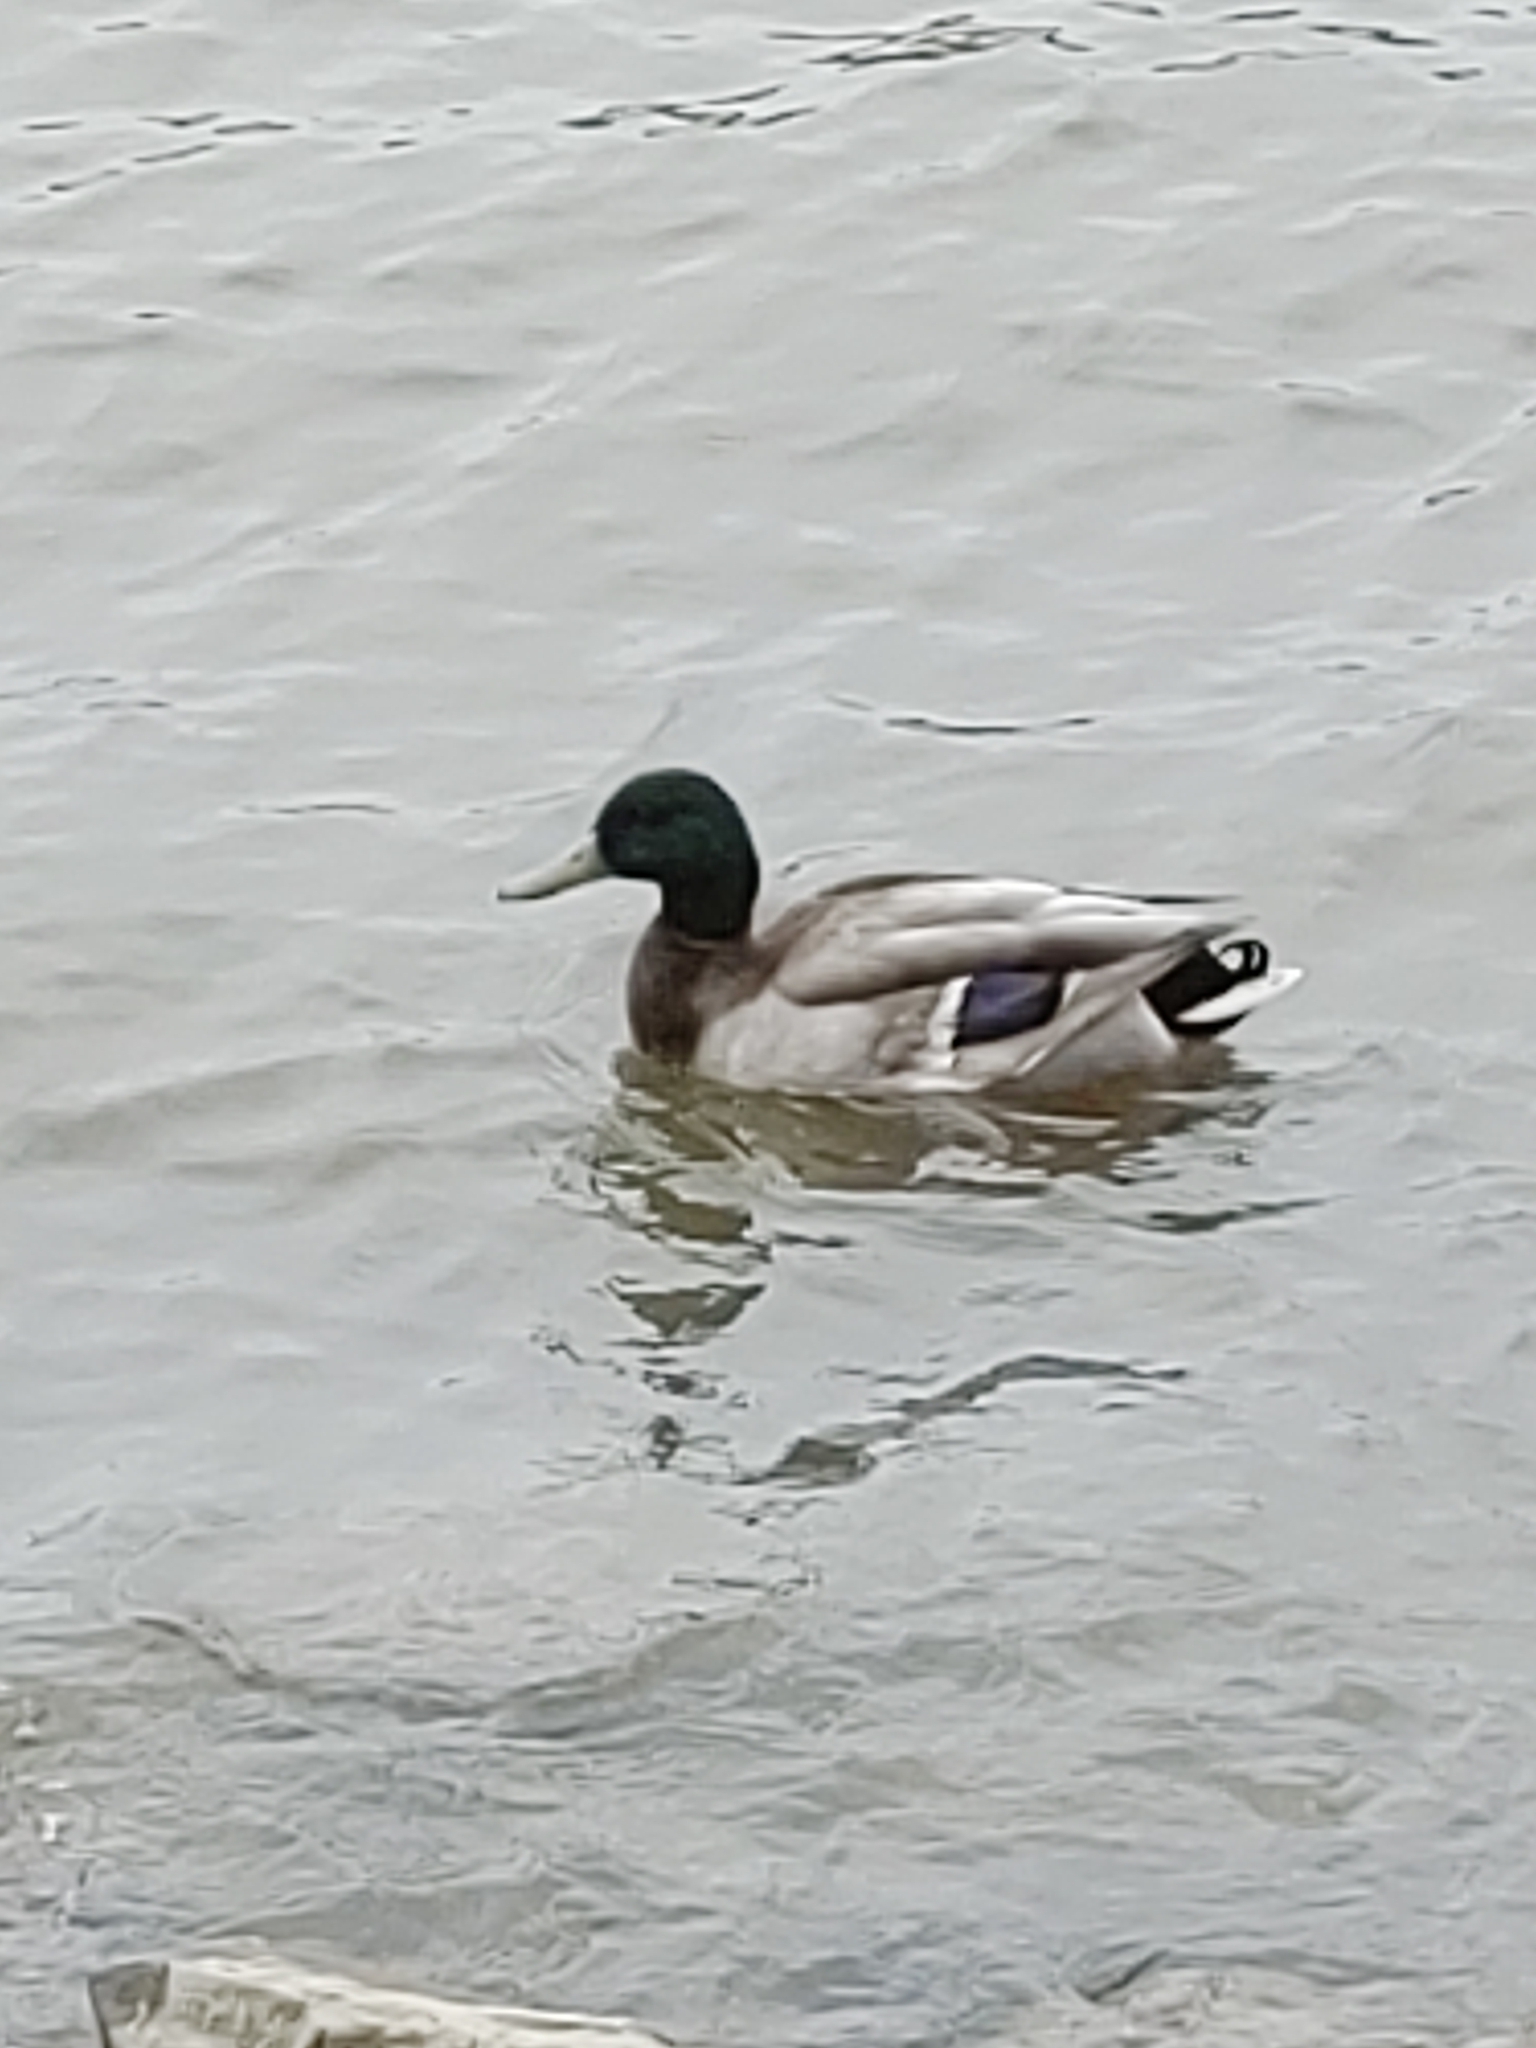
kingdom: Animalia
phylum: Chordata
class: Aves
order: Anseriformes
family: Anatidae
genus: Anas
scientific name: Anas platyrhynchos
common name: Mallard
